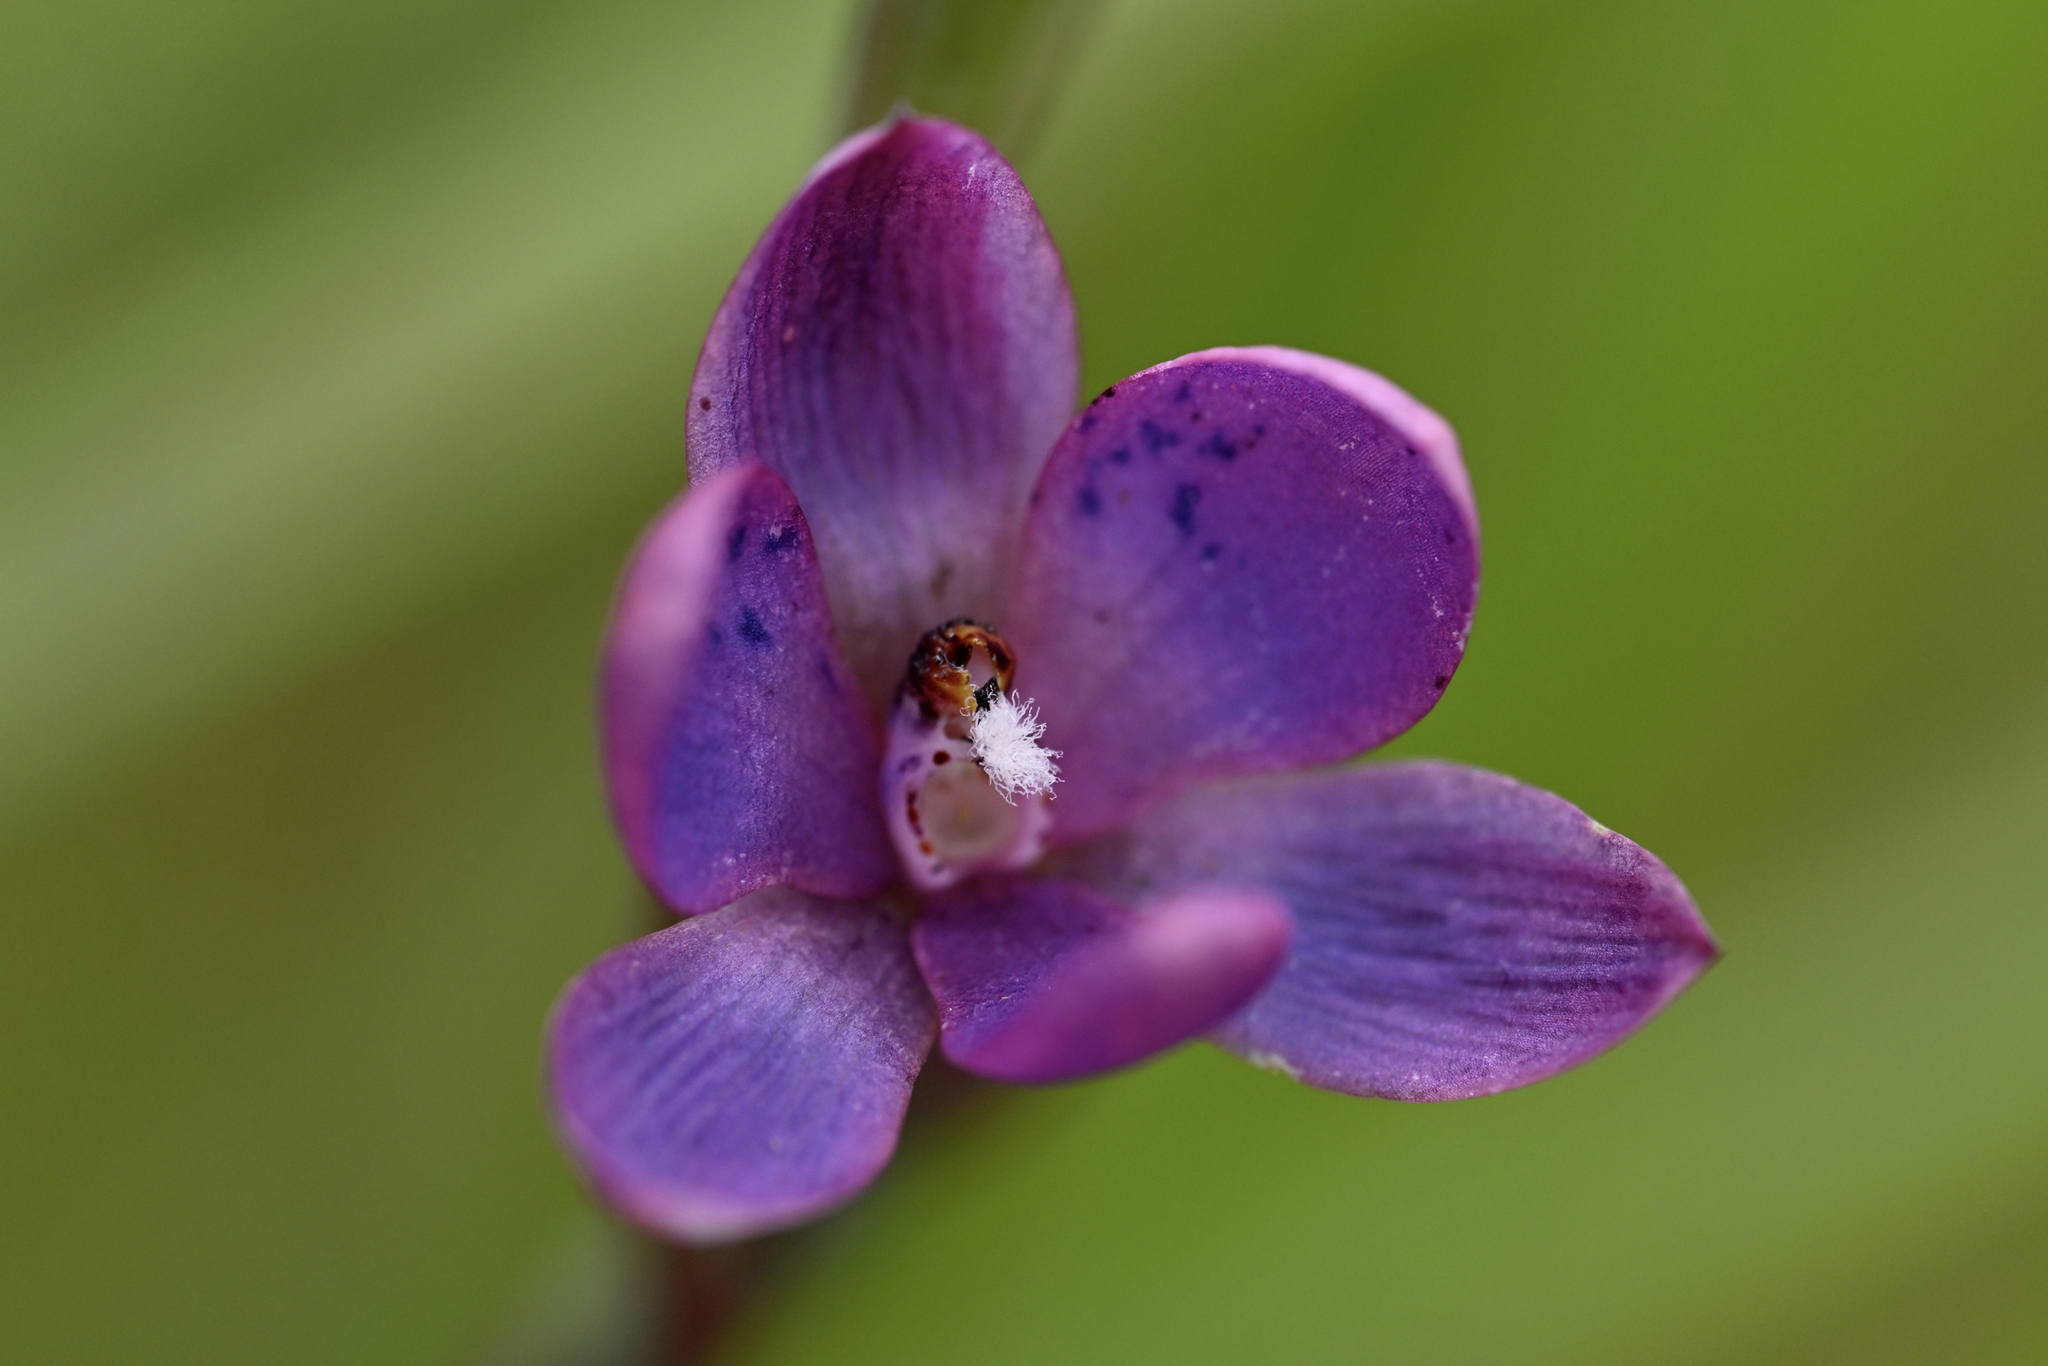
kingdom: Plantae
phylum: Tracheophyta
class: Liliopsida
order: Asparagales
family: Orchidaceae
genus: Thelymitra
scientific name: Thelymitra nervosa
